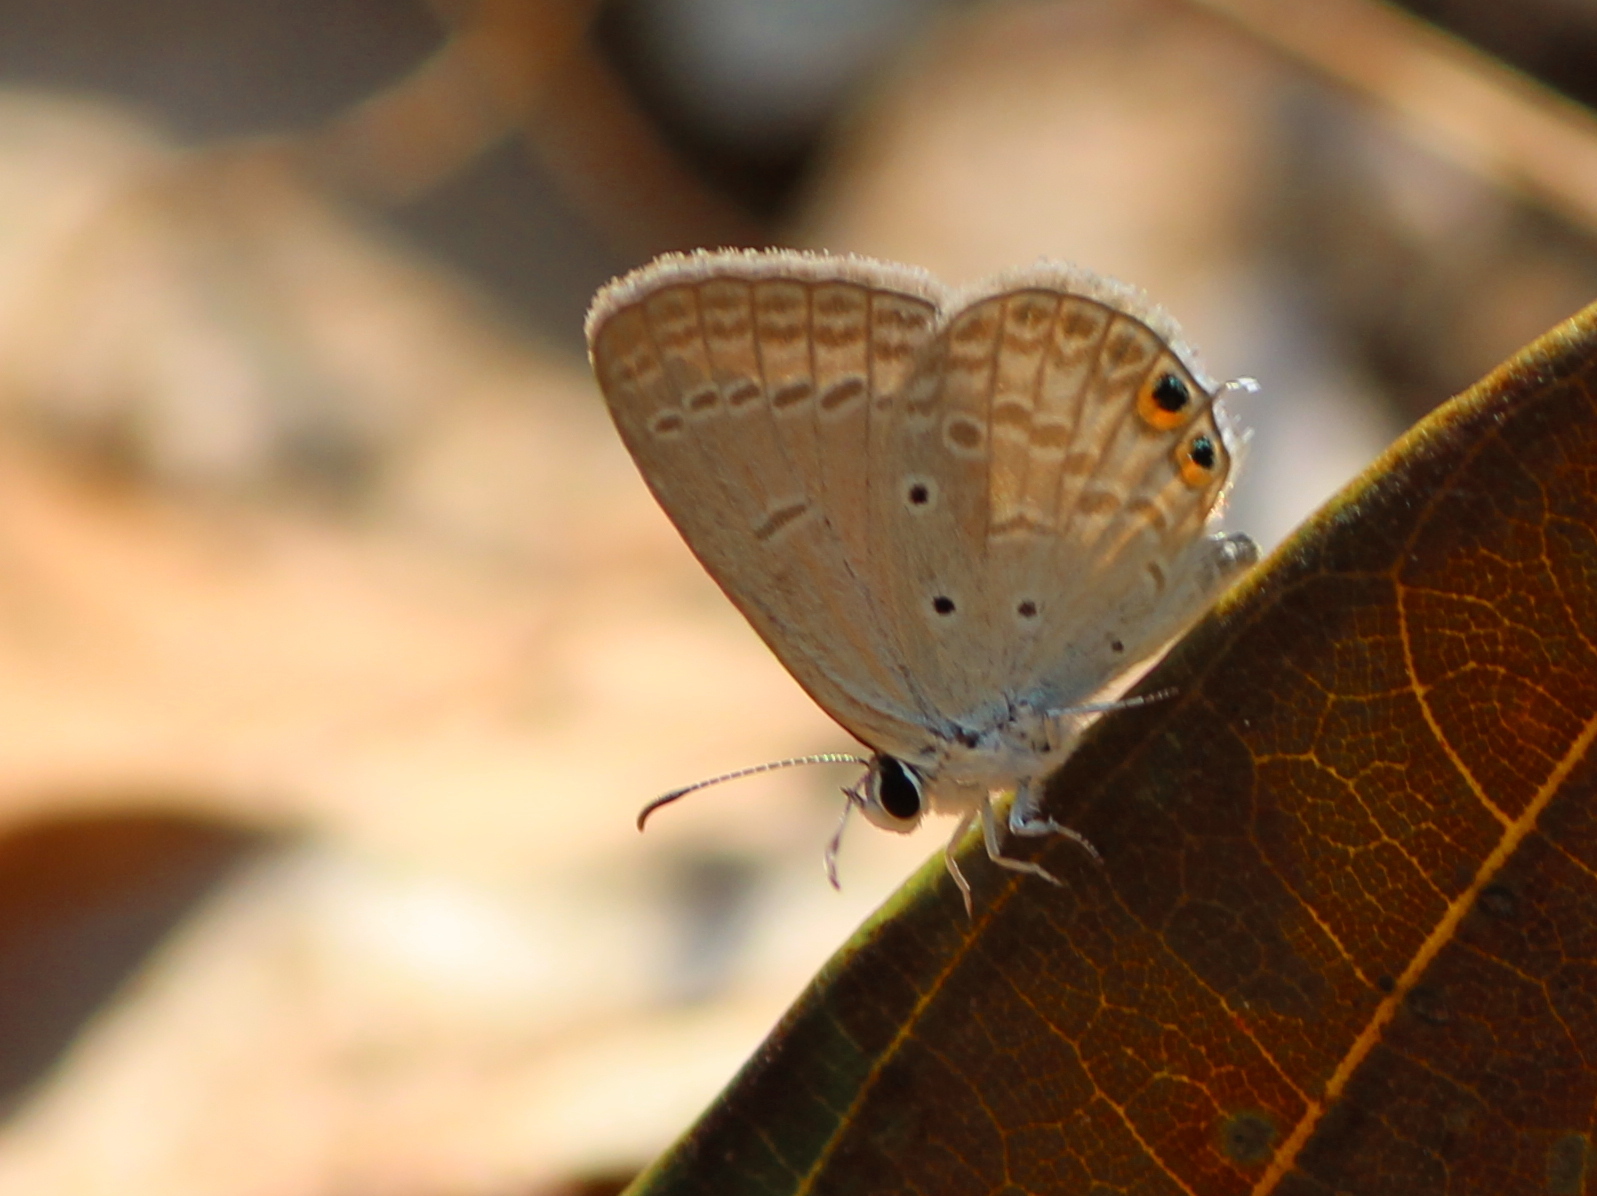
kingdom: Animalia
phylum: Arthropoda
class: Insecta
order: Lepidoptera
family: Lycaenidae
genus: Euchrysops
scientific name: Euchrysops cnejus
